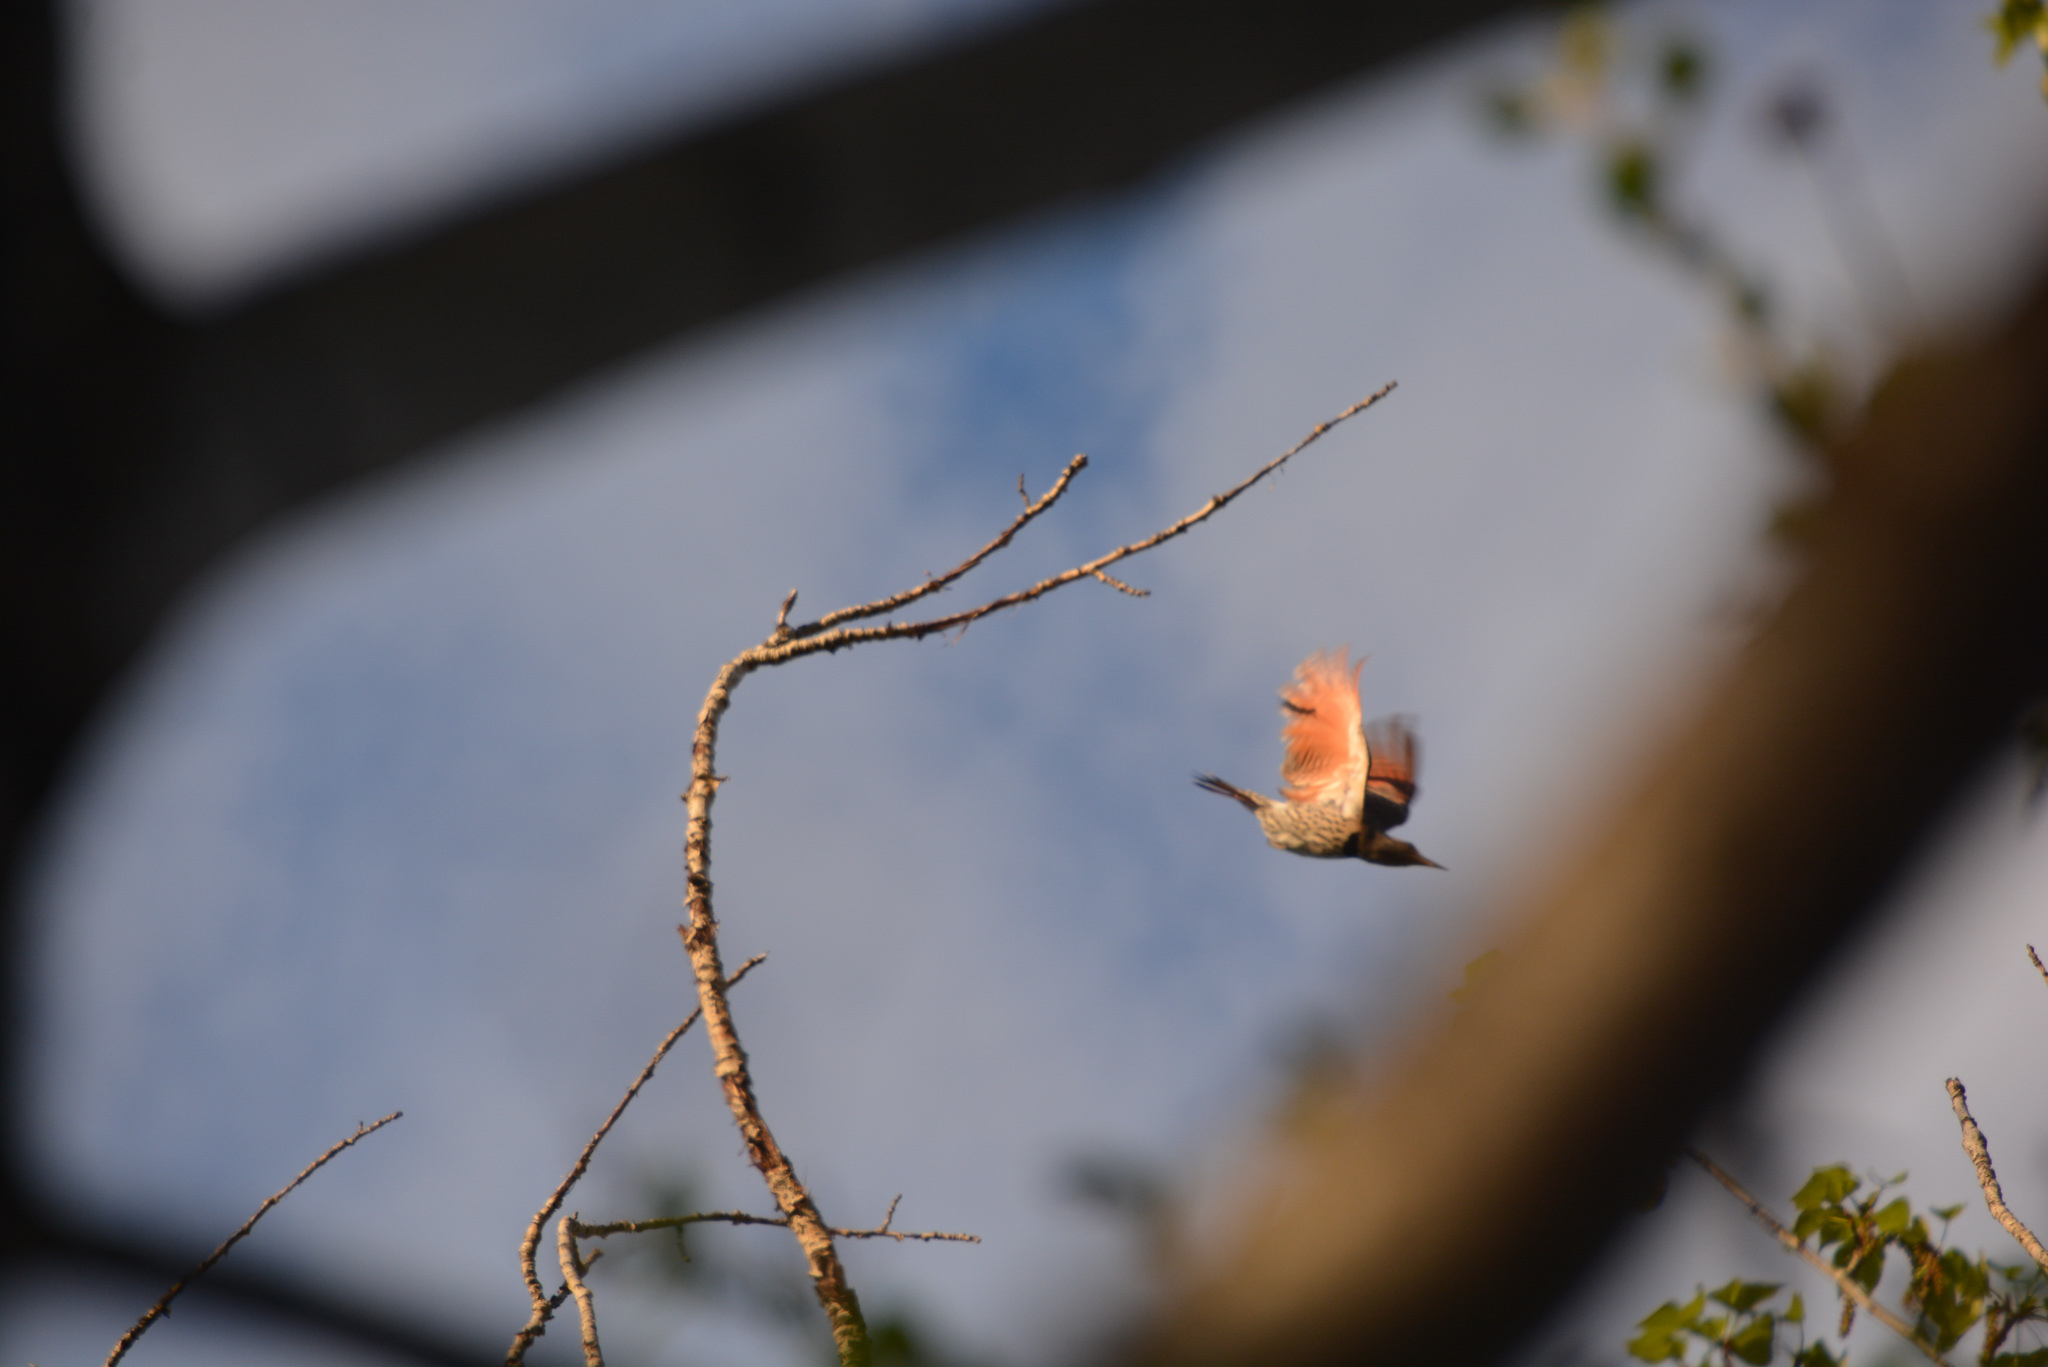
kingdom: Animalia
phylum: Chordata
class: Aves
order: Piciformes
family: Picidae
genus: Colaptes
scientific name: Colaptes auratus
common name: Northern flicker
